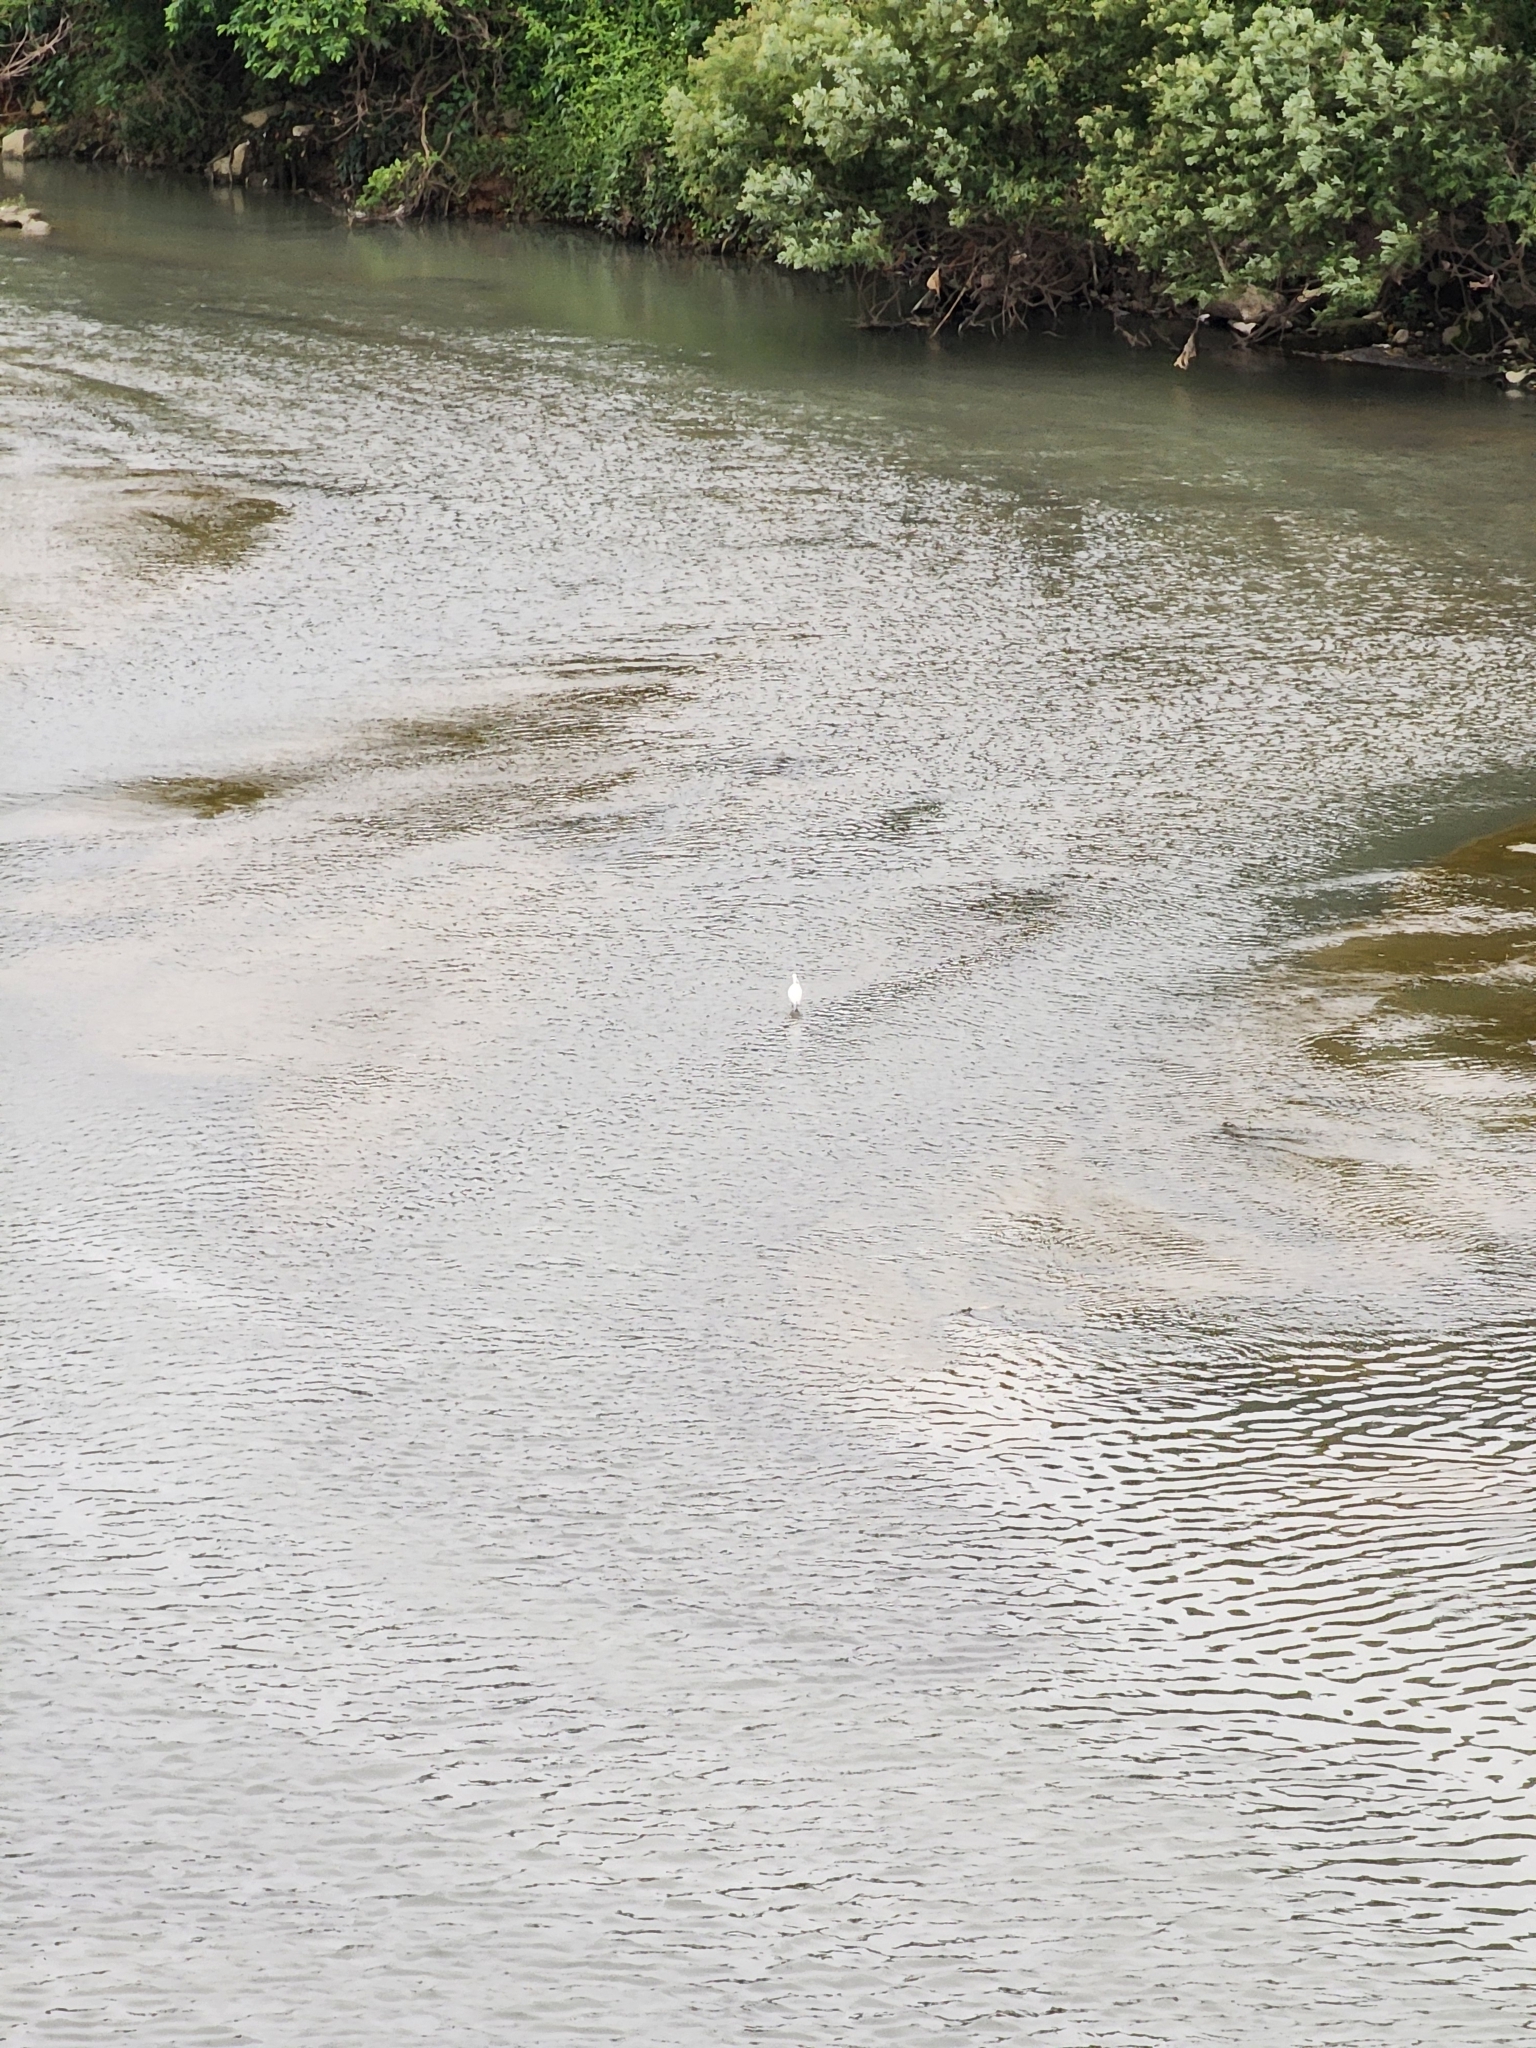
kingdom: Animalia
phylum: Chordata
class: Aves
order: Pelecaniformes
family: Ardeidae
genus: Egretta
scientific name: Egretta garzetta
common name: Little egret
